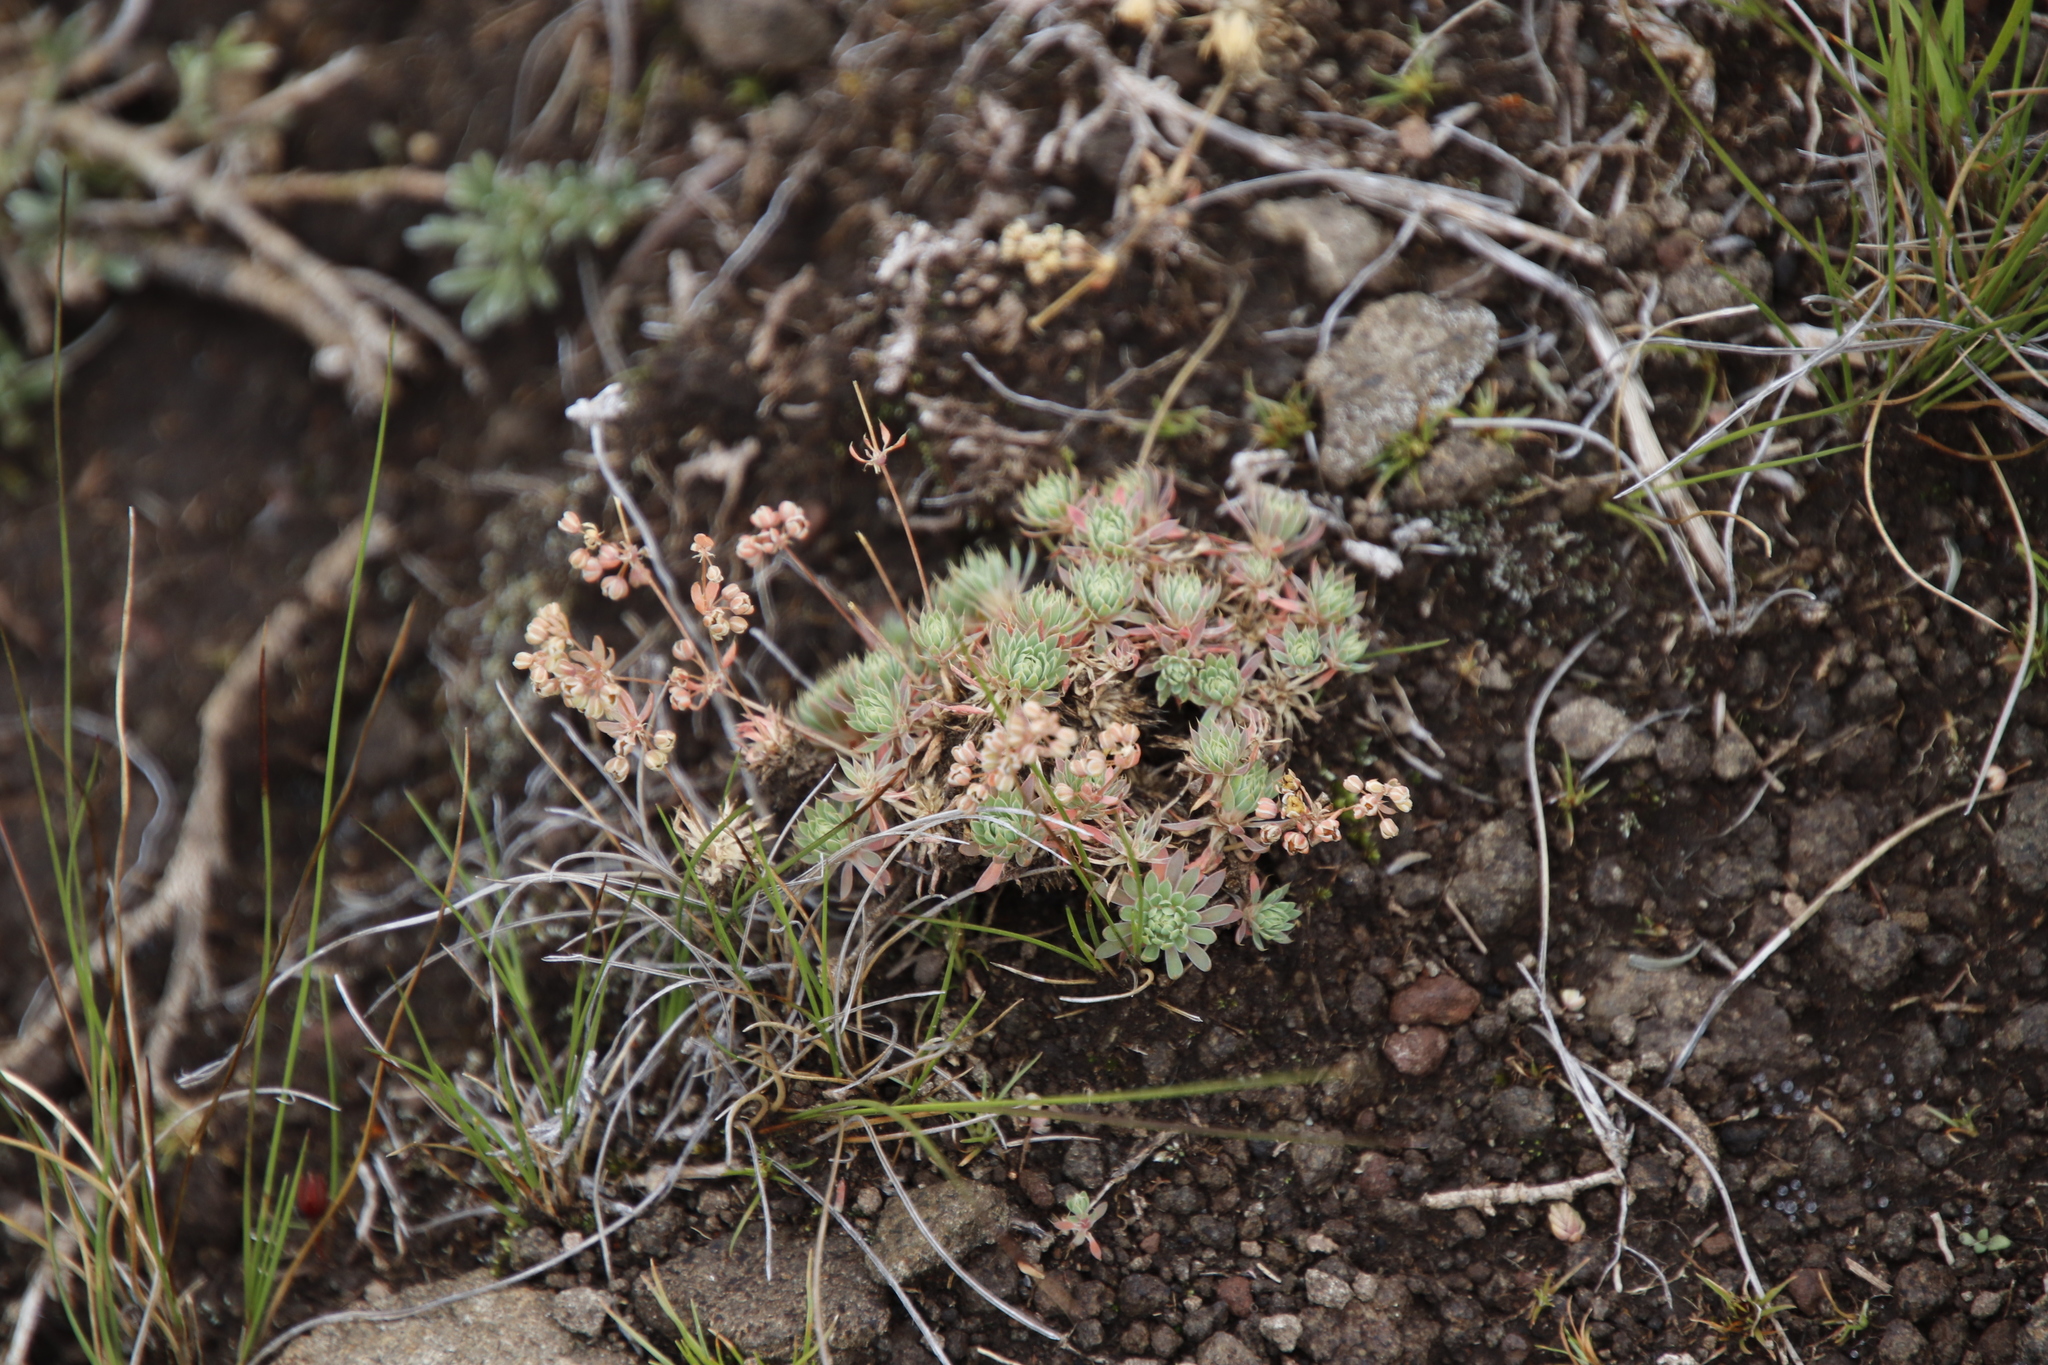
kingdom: Plantae
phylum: Tracheophyta
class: Magnoliopsida
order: Caryophyllales
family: Molluginaceae
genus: Psammotropha
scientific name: Psammotropha mucronata
